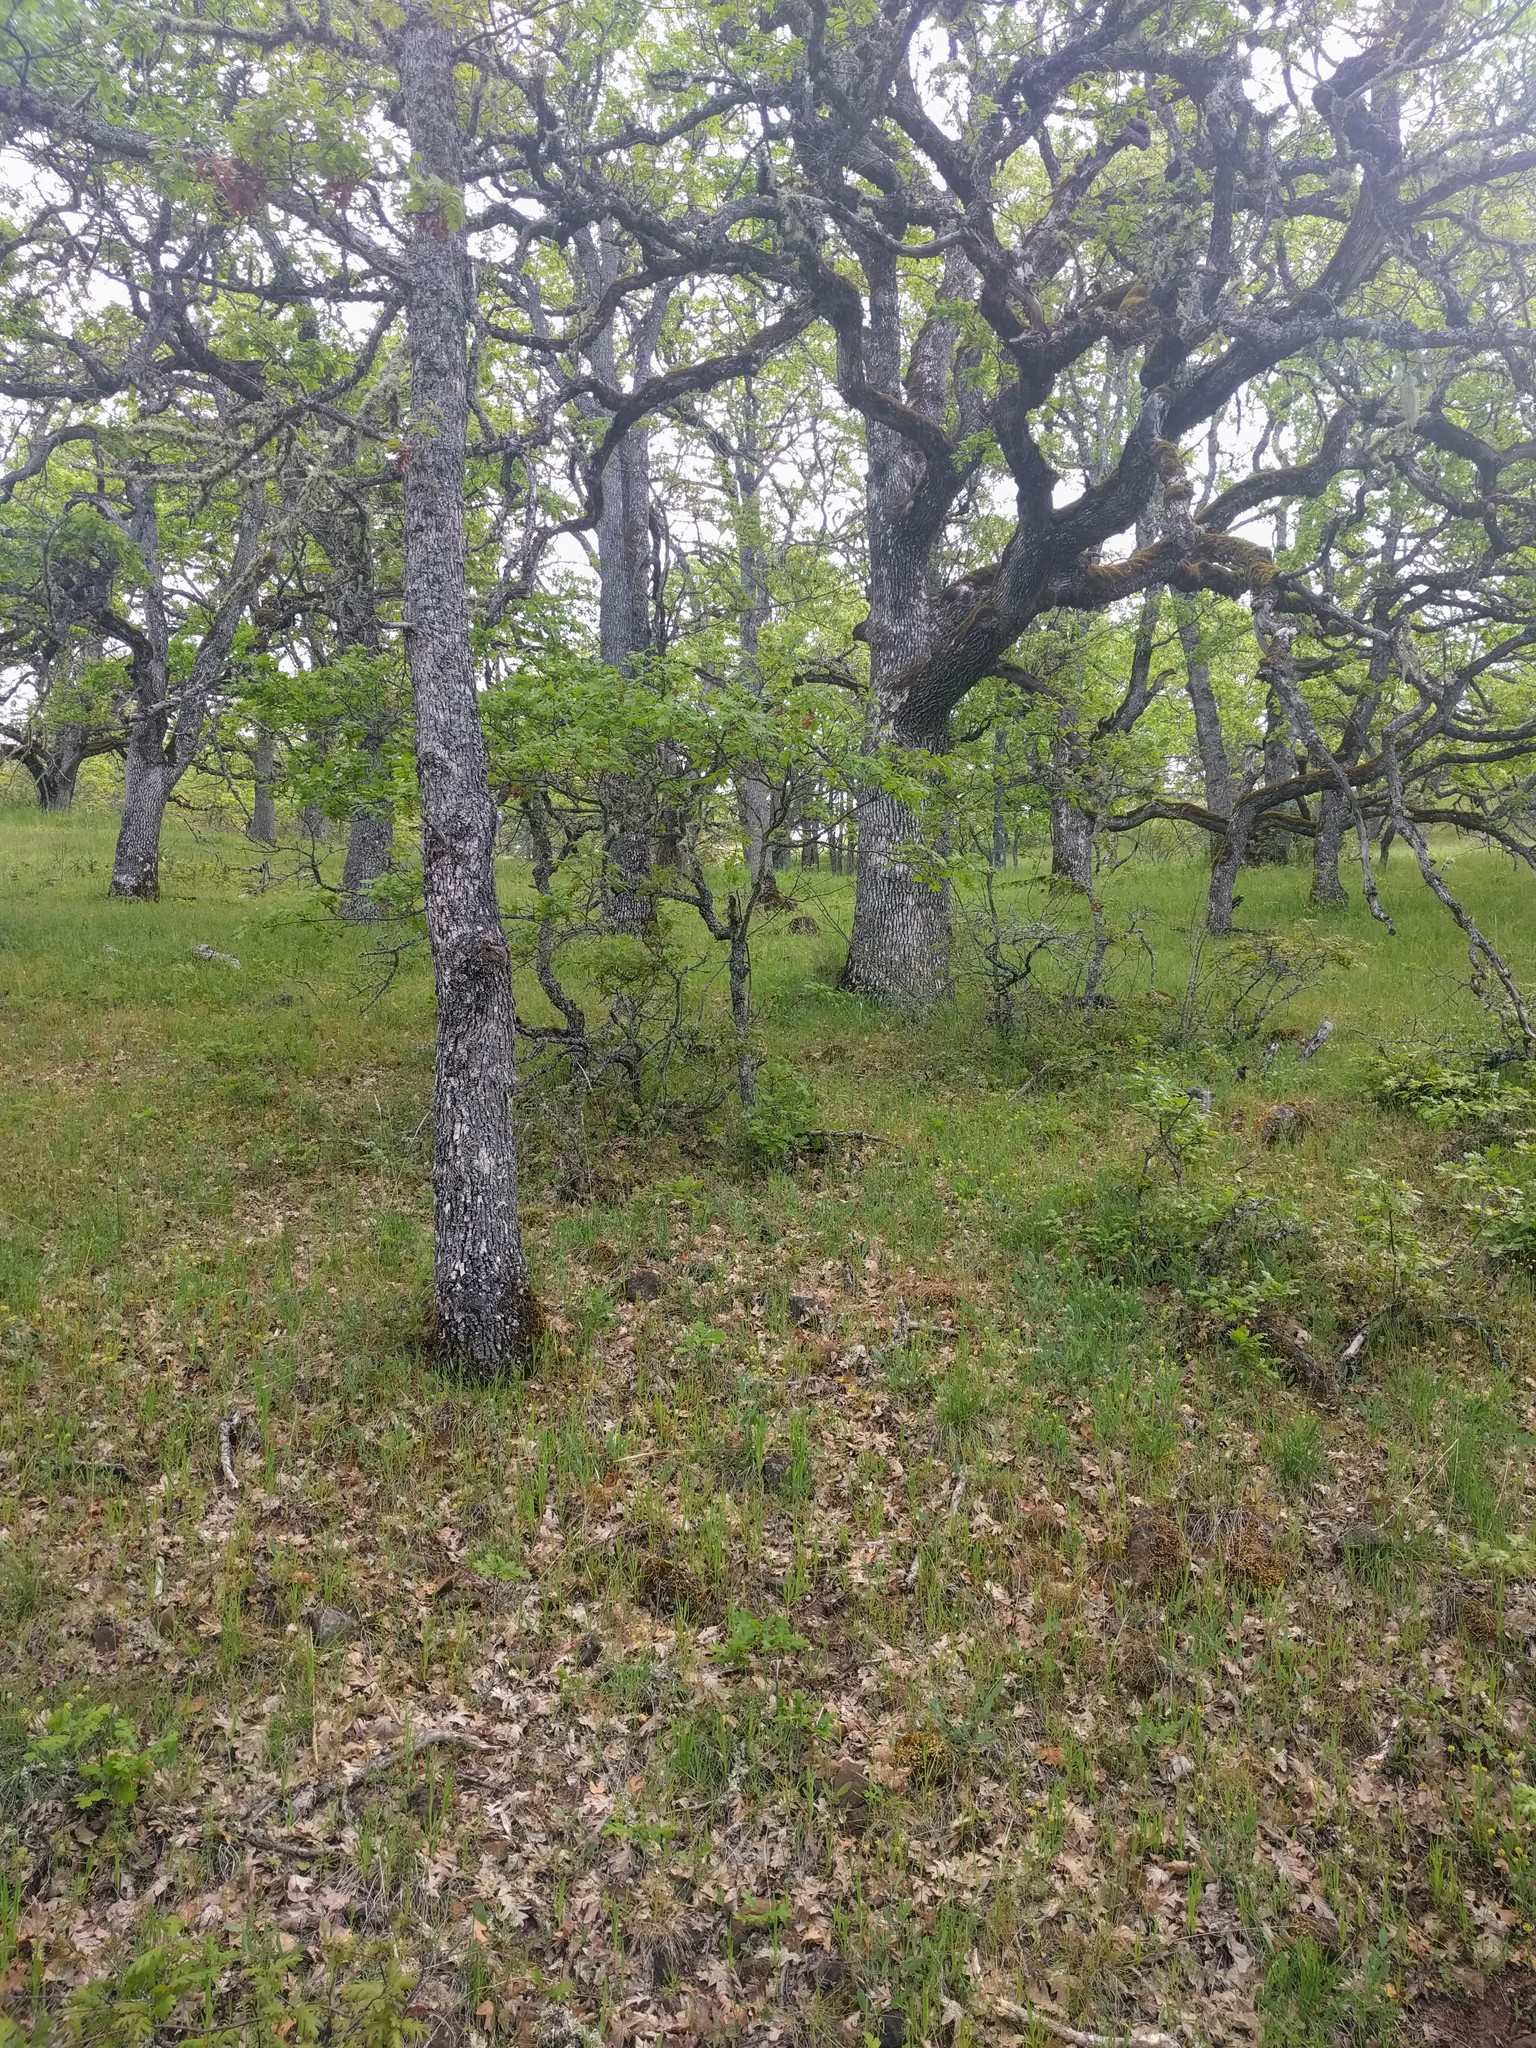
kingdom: Plantae
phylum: Tracheophyta
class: Magnoliopsida
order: Fagales
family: Fagaceae
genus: Quercus
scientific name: Quercus garryana
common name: Garry oak
